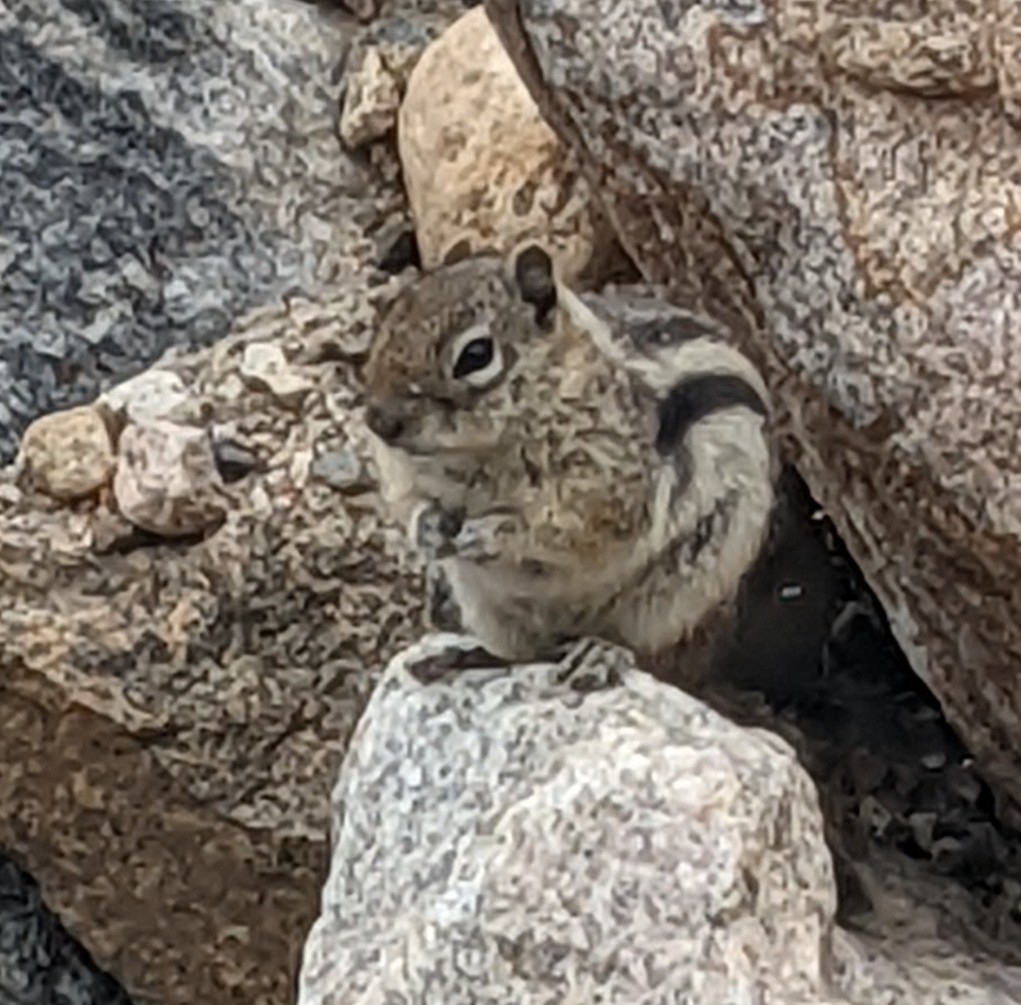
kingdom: Animalia
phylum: Chordata
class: Mammalia
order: Rodentia
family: Sciuridae
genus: Callospermophilus
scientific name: Callospermophilus lateralis
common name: Golden-mantled ground squirrel
